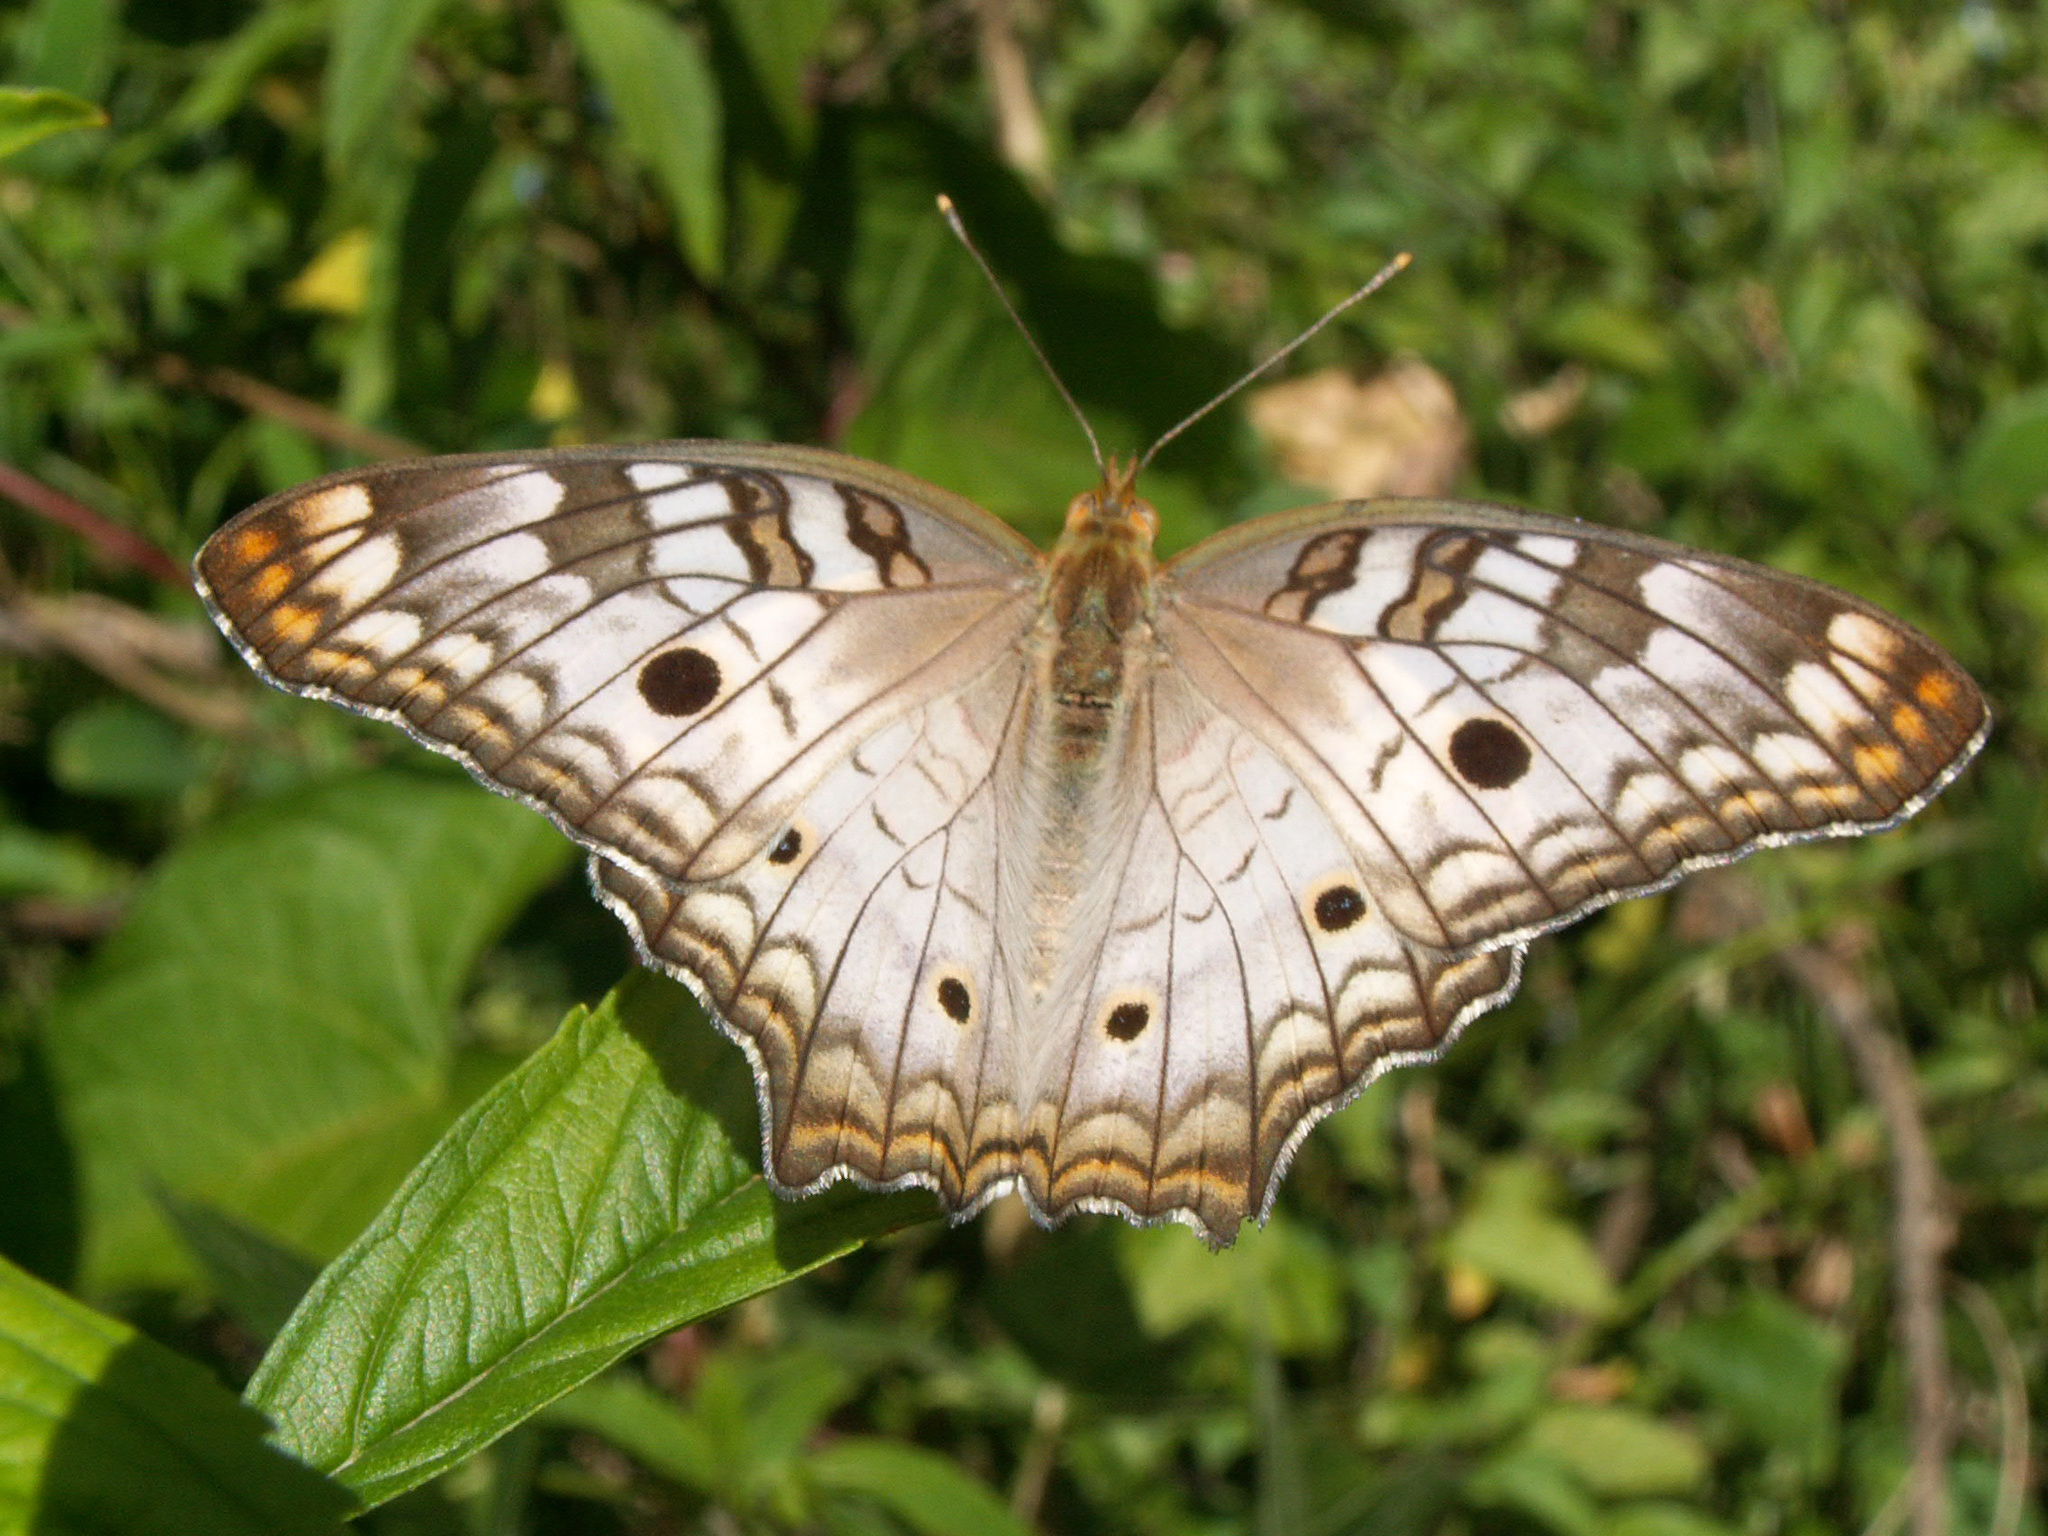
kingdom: Animalia
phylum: Arthropoda
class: Insecta
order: Lepidoptera
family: Nymphalidae
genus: Anartia
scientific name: Anartia jatrophae
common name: White peacock
